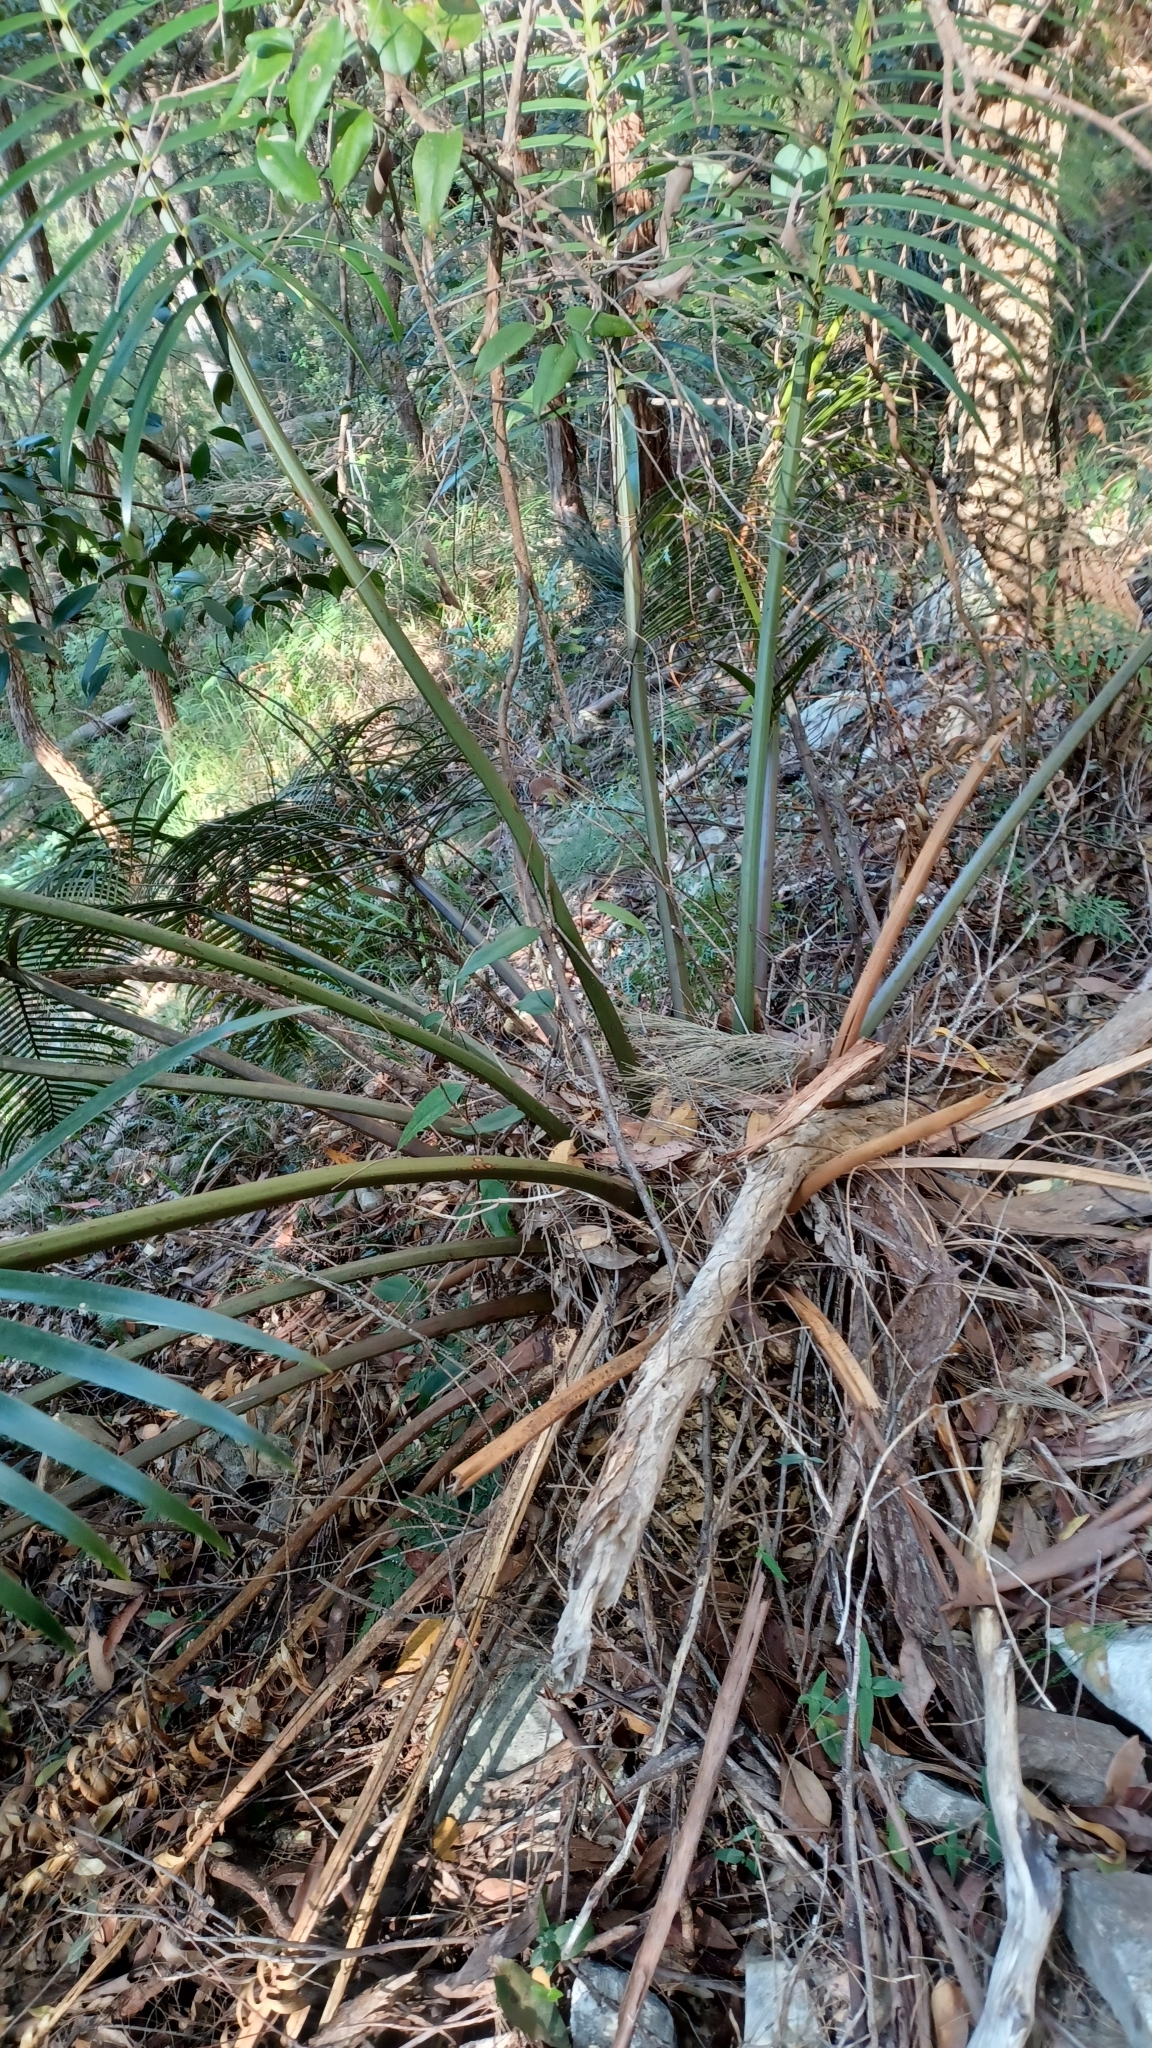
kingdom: Plantae
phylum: Tracheophyta
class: Cycadopsida
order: Cycadales
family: Zamiaceae
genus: Lepidozamia
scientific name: Lepidozamia peroffskyana
